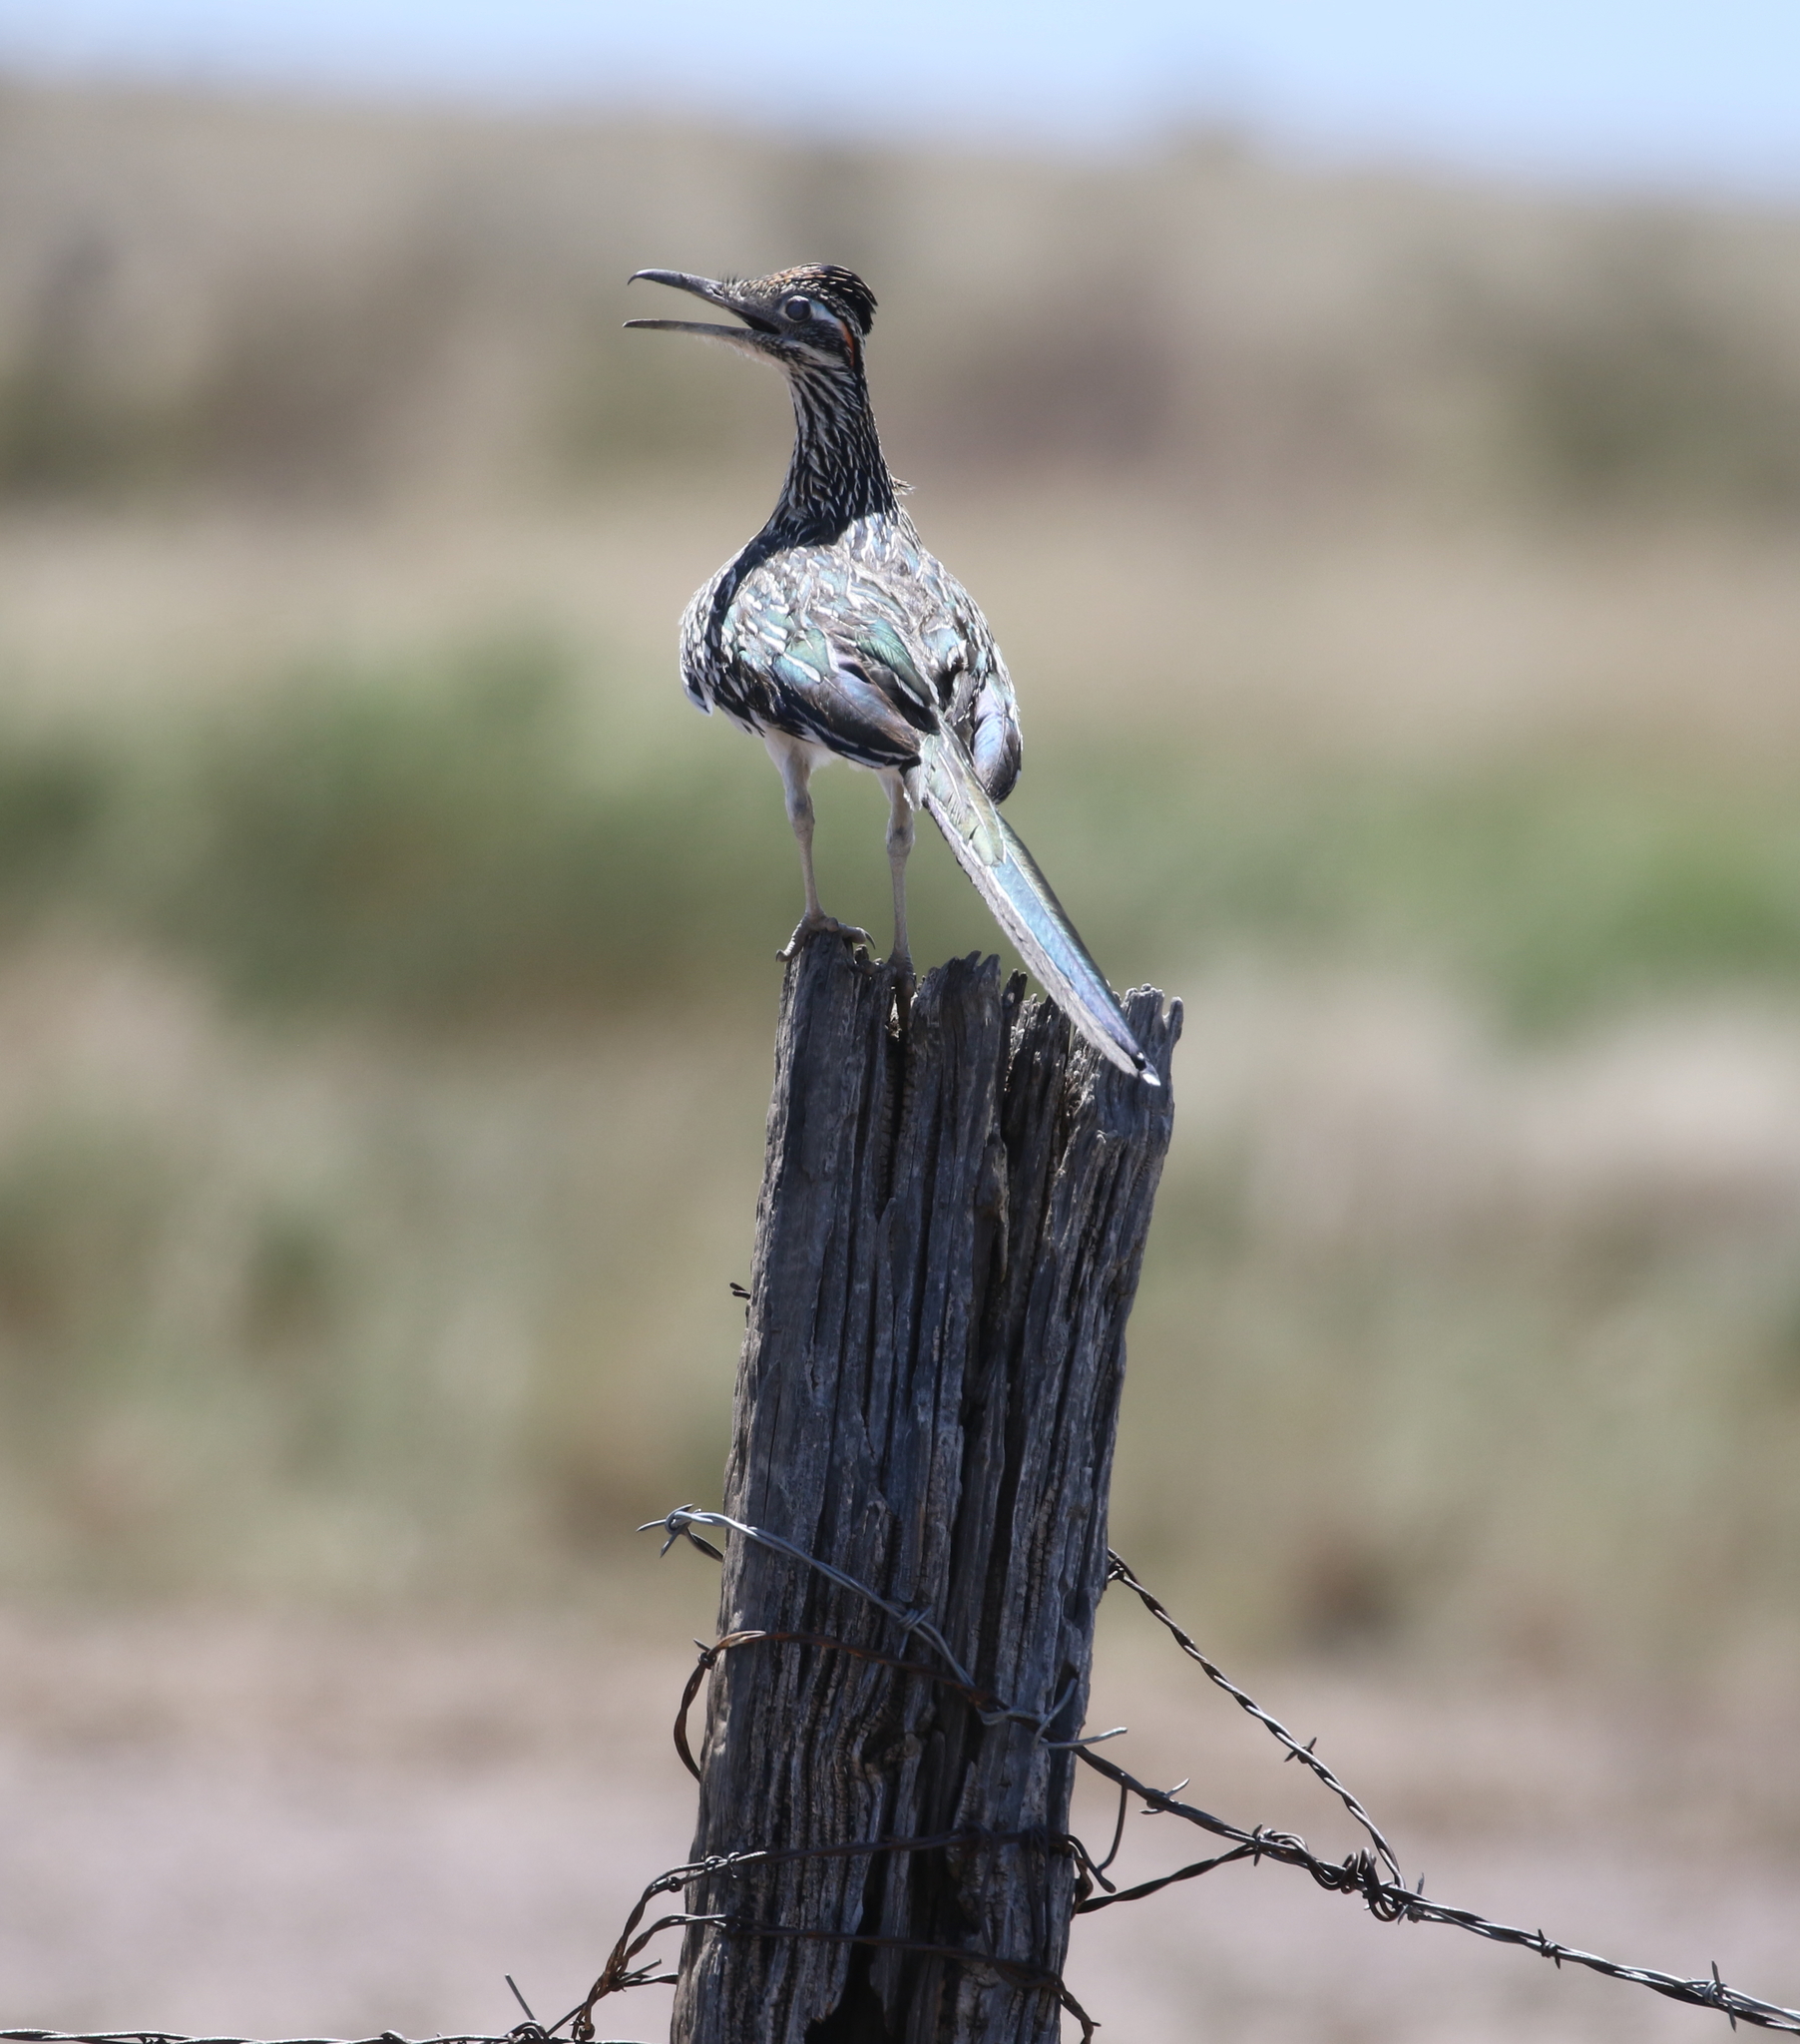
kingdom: Animalia
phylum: Chordata
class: Aves
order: Cuculiformes
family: Cuculidae
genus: Geococcyx
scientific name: Geococcyx californianus
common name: Greater roadrunner
